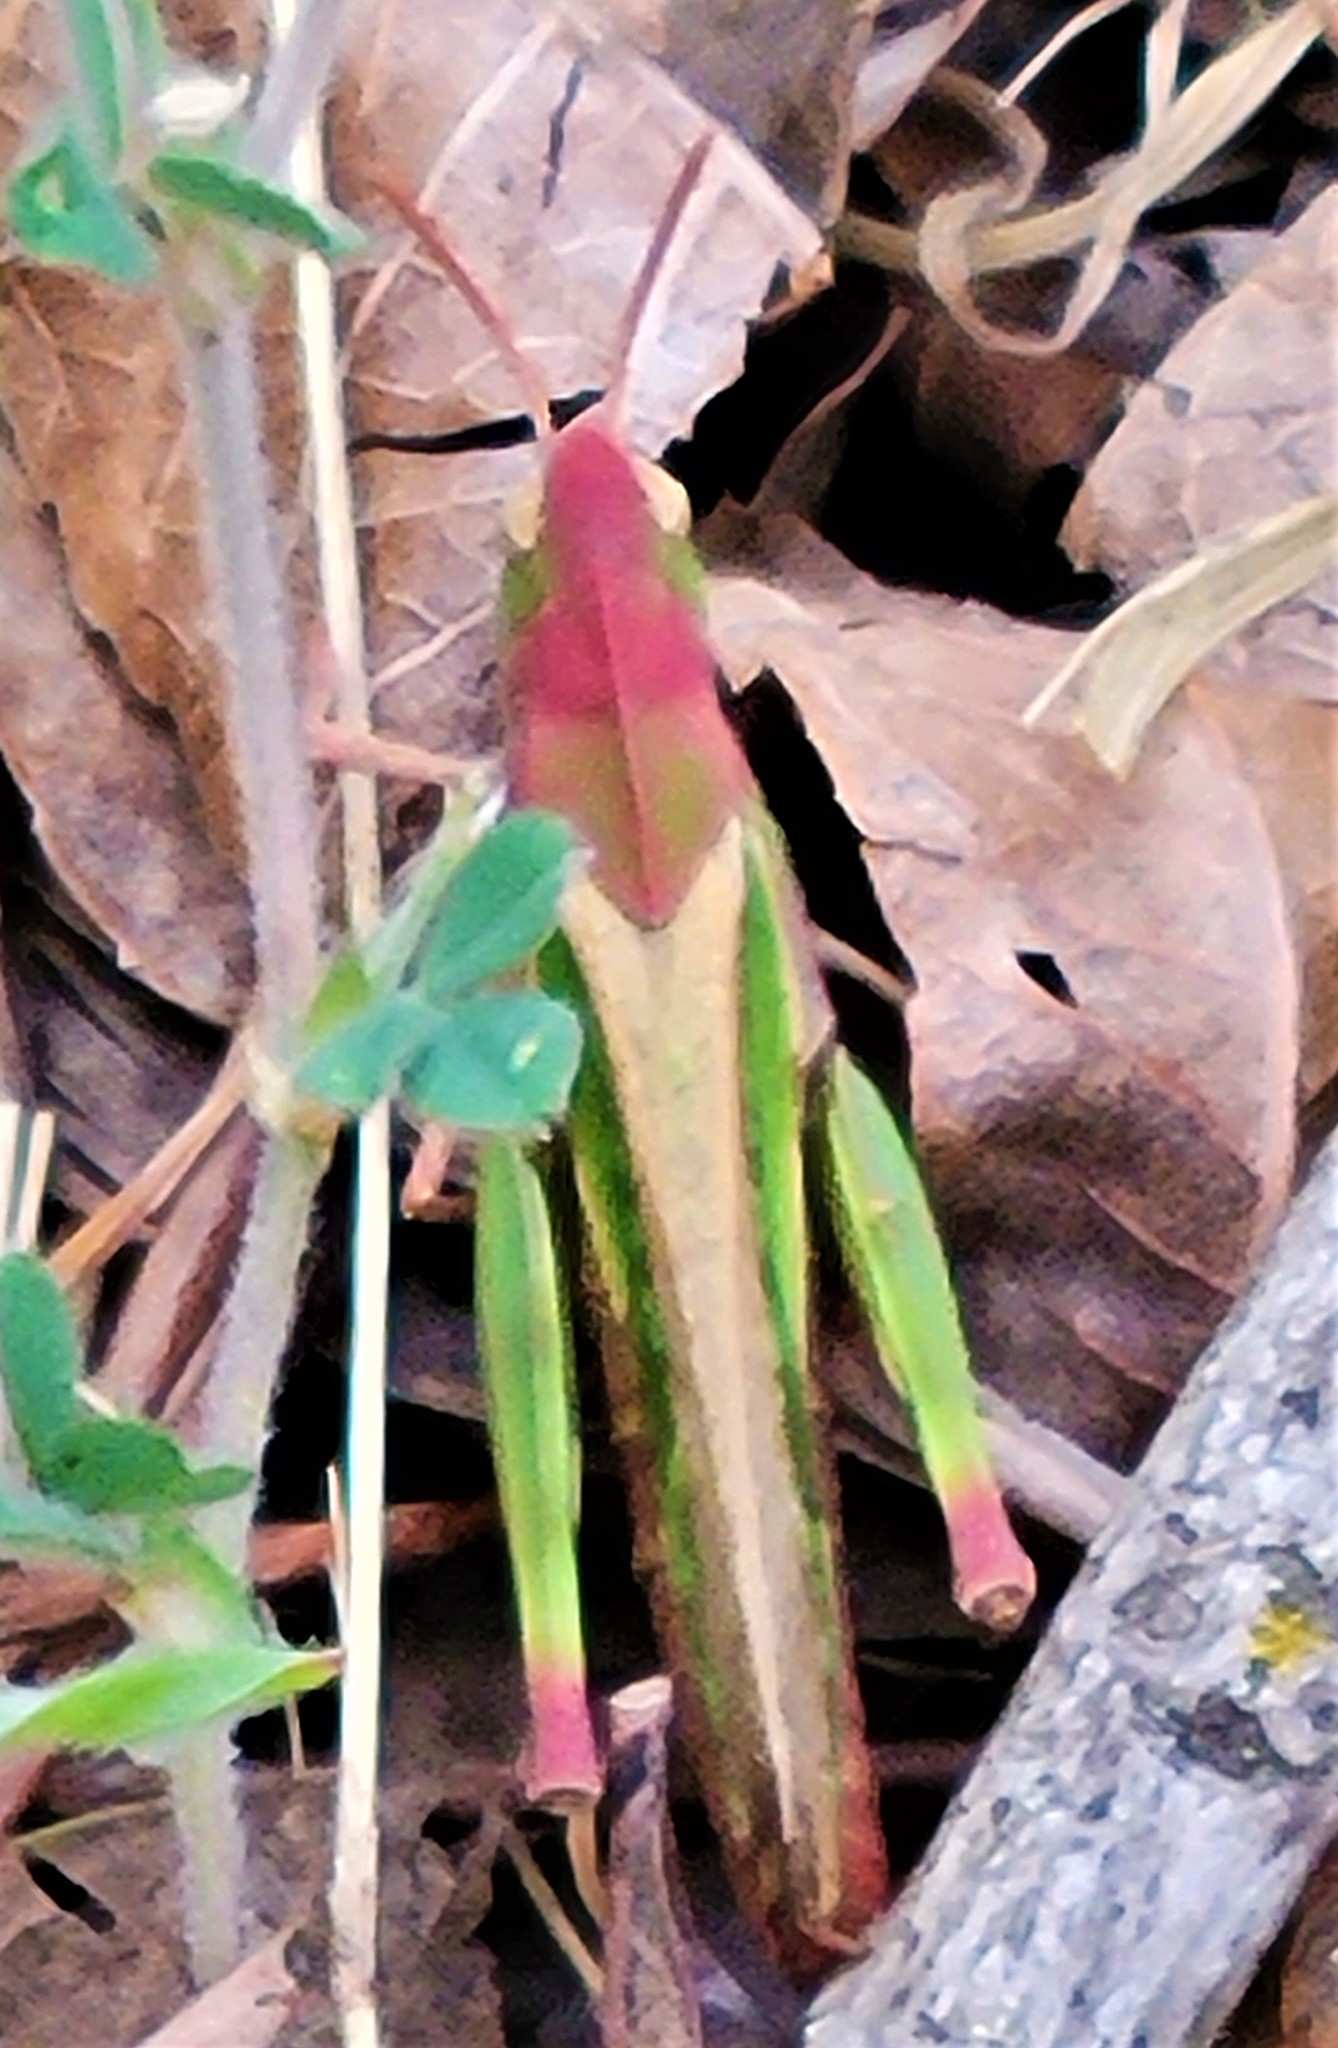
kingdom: Animalia
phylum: Arthropoda
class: Insecta
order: Orthoptera
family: Acrididae
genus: Chortophaga
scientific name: Chortophaga viridifasciata
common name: Green-striped grasshopper
